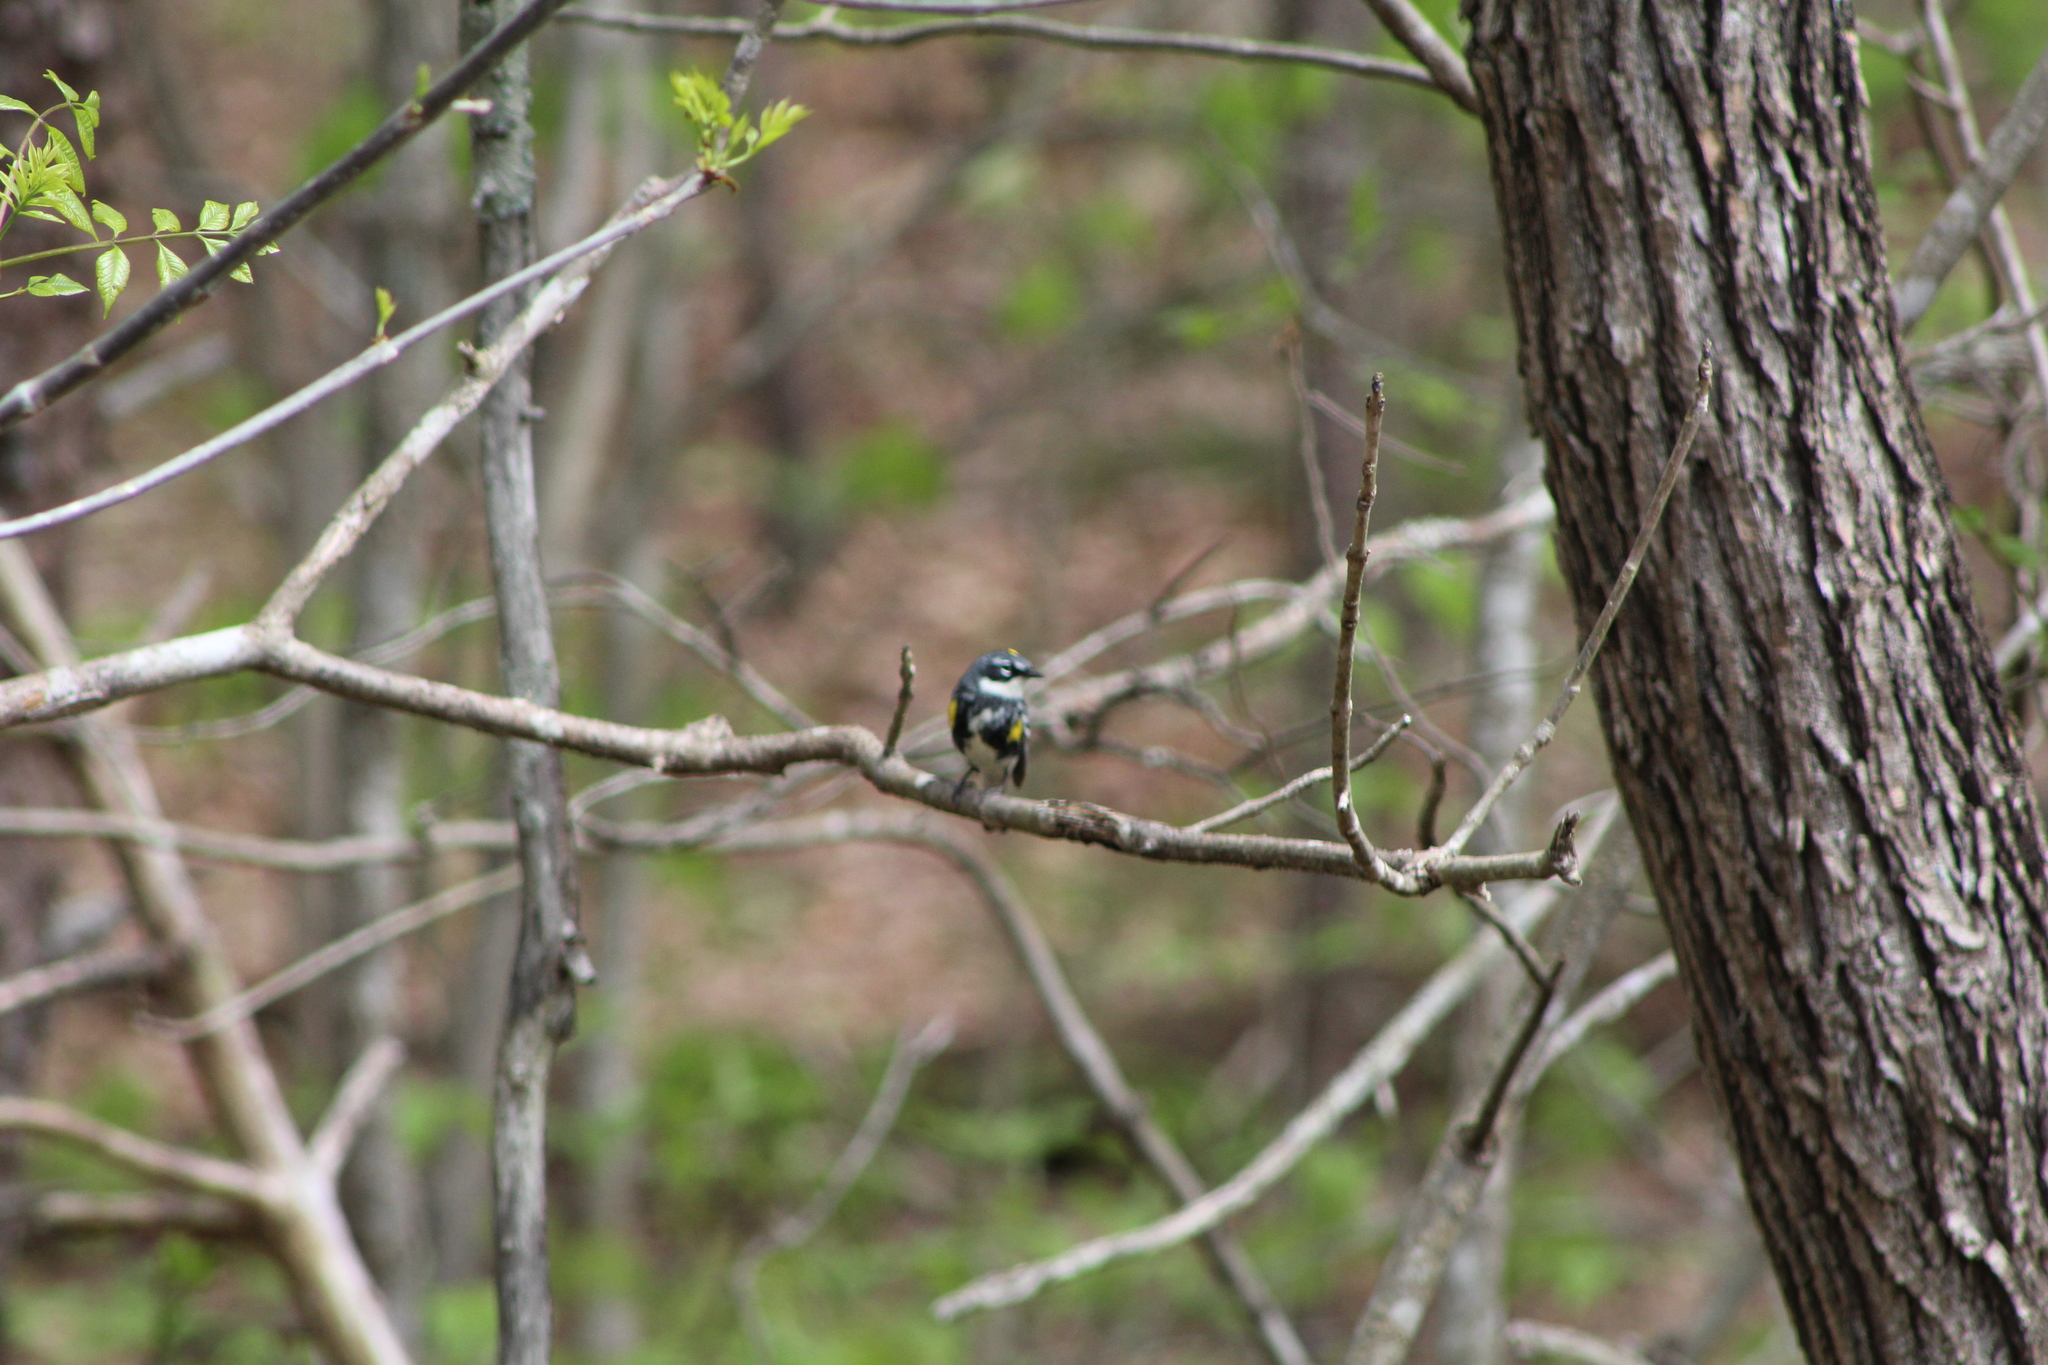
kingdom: Animalia
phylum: Chordata
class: Aves
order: Passeriformes
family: Parulidae
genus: Setophaga
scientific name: Setophaga coronata
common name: Myrtle warbler
